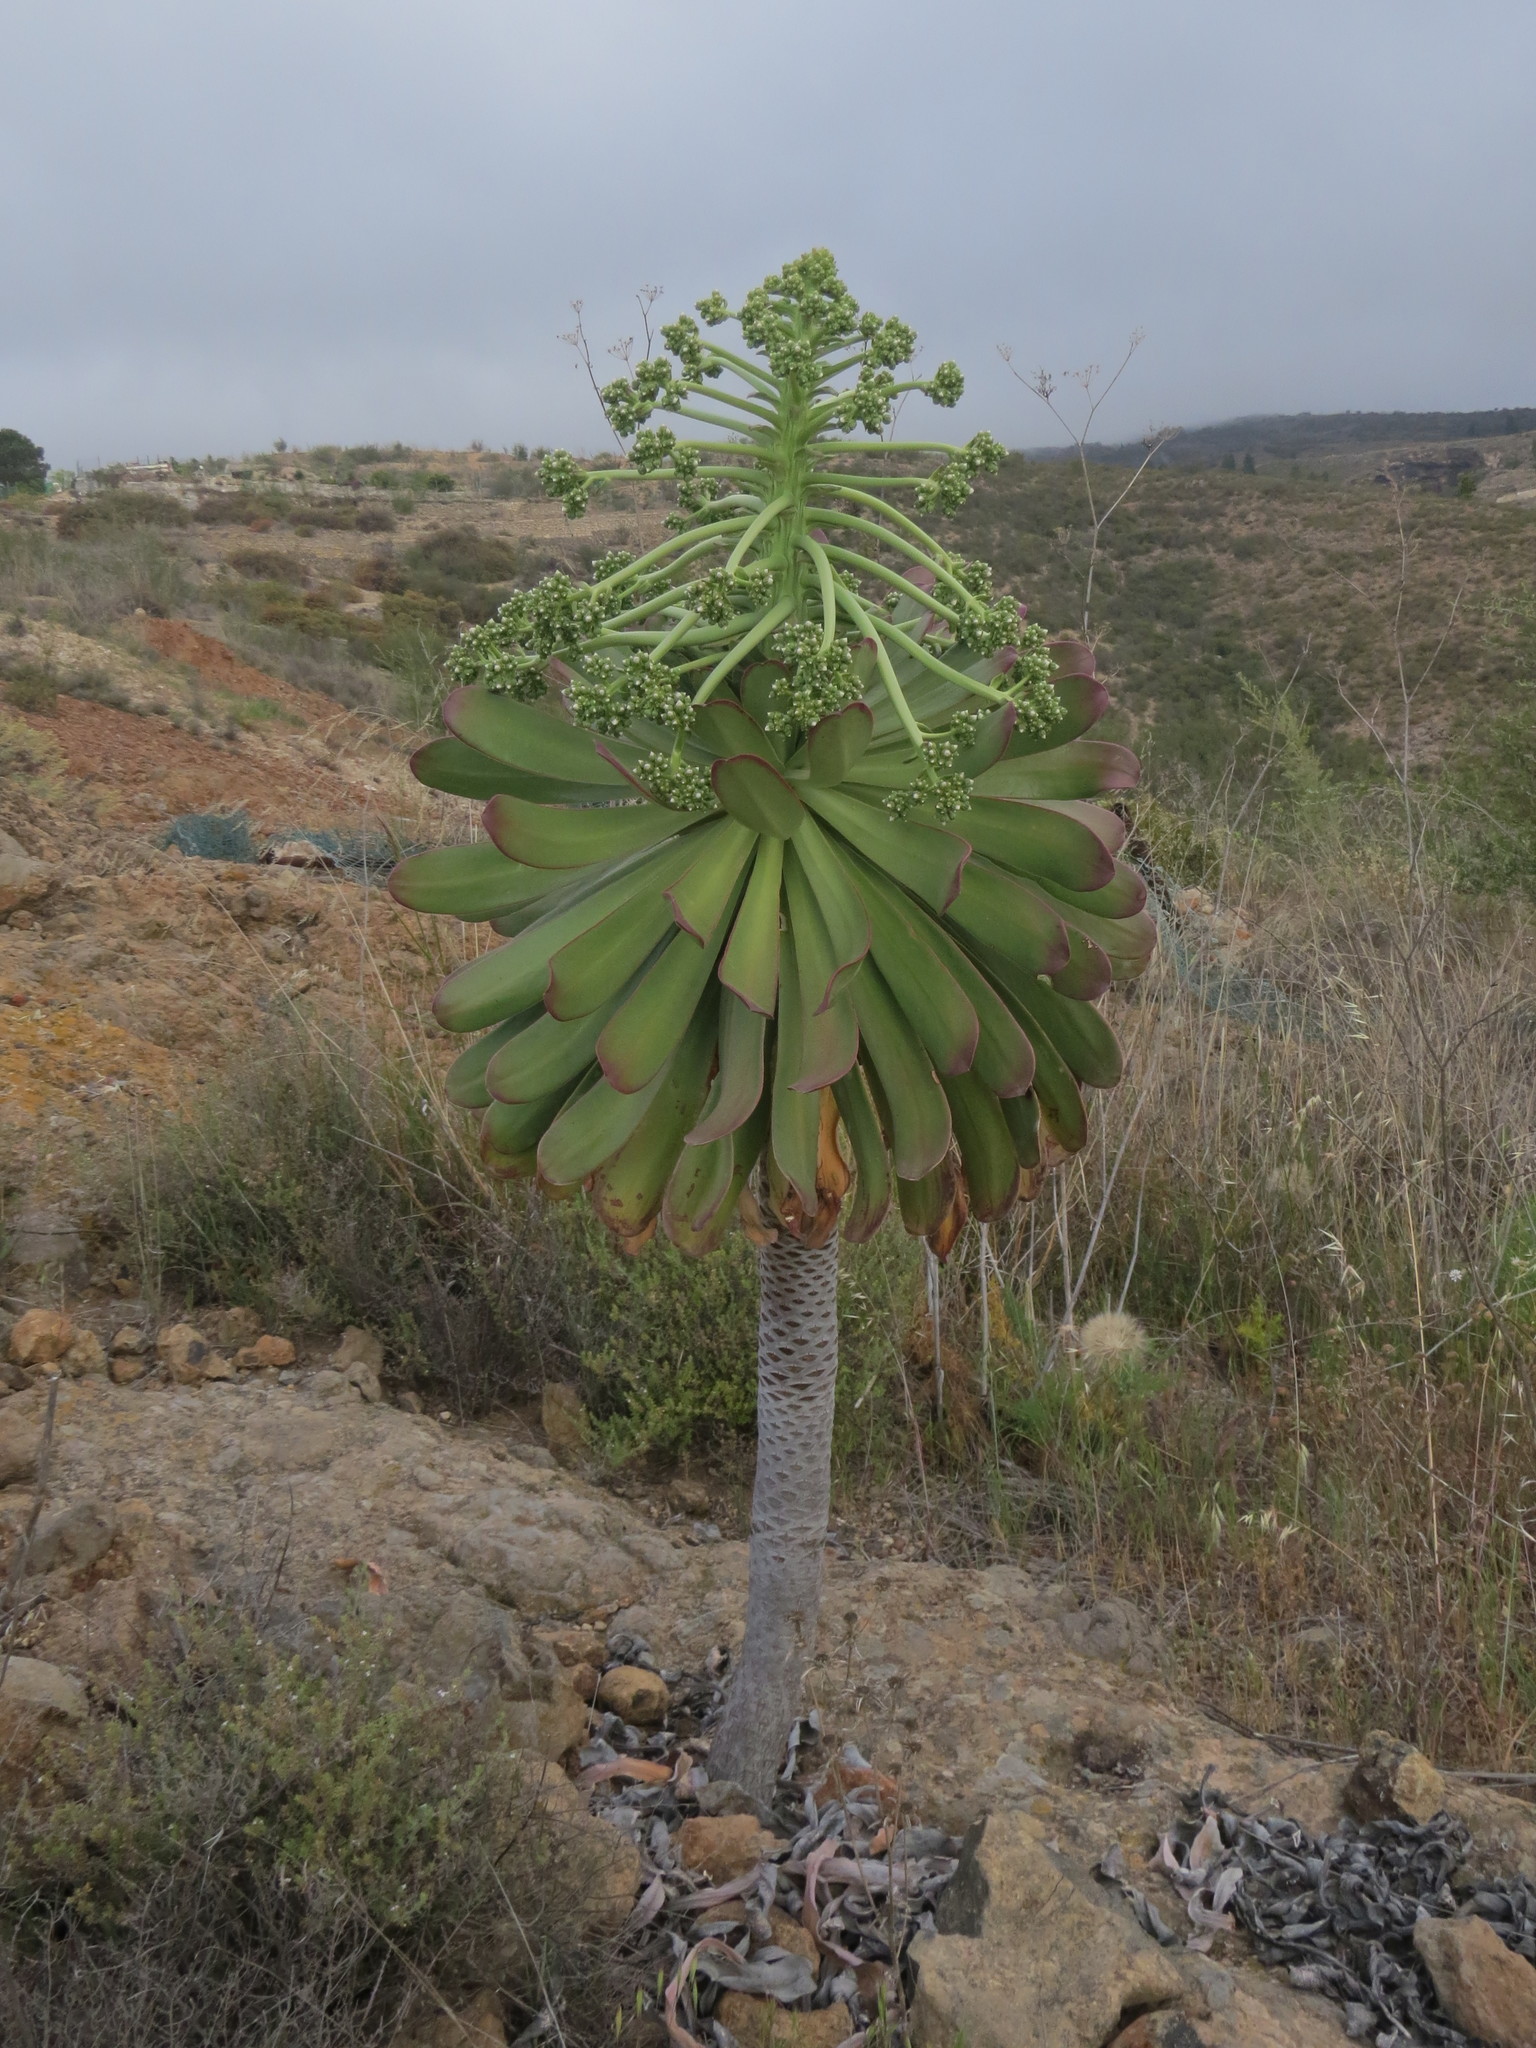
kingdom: Plantae
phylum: Tracheophyta
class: Magnoliopsida
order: Saxifragales
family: Crassulaceae
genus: Aeonium
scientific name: Aeonium urbicum
